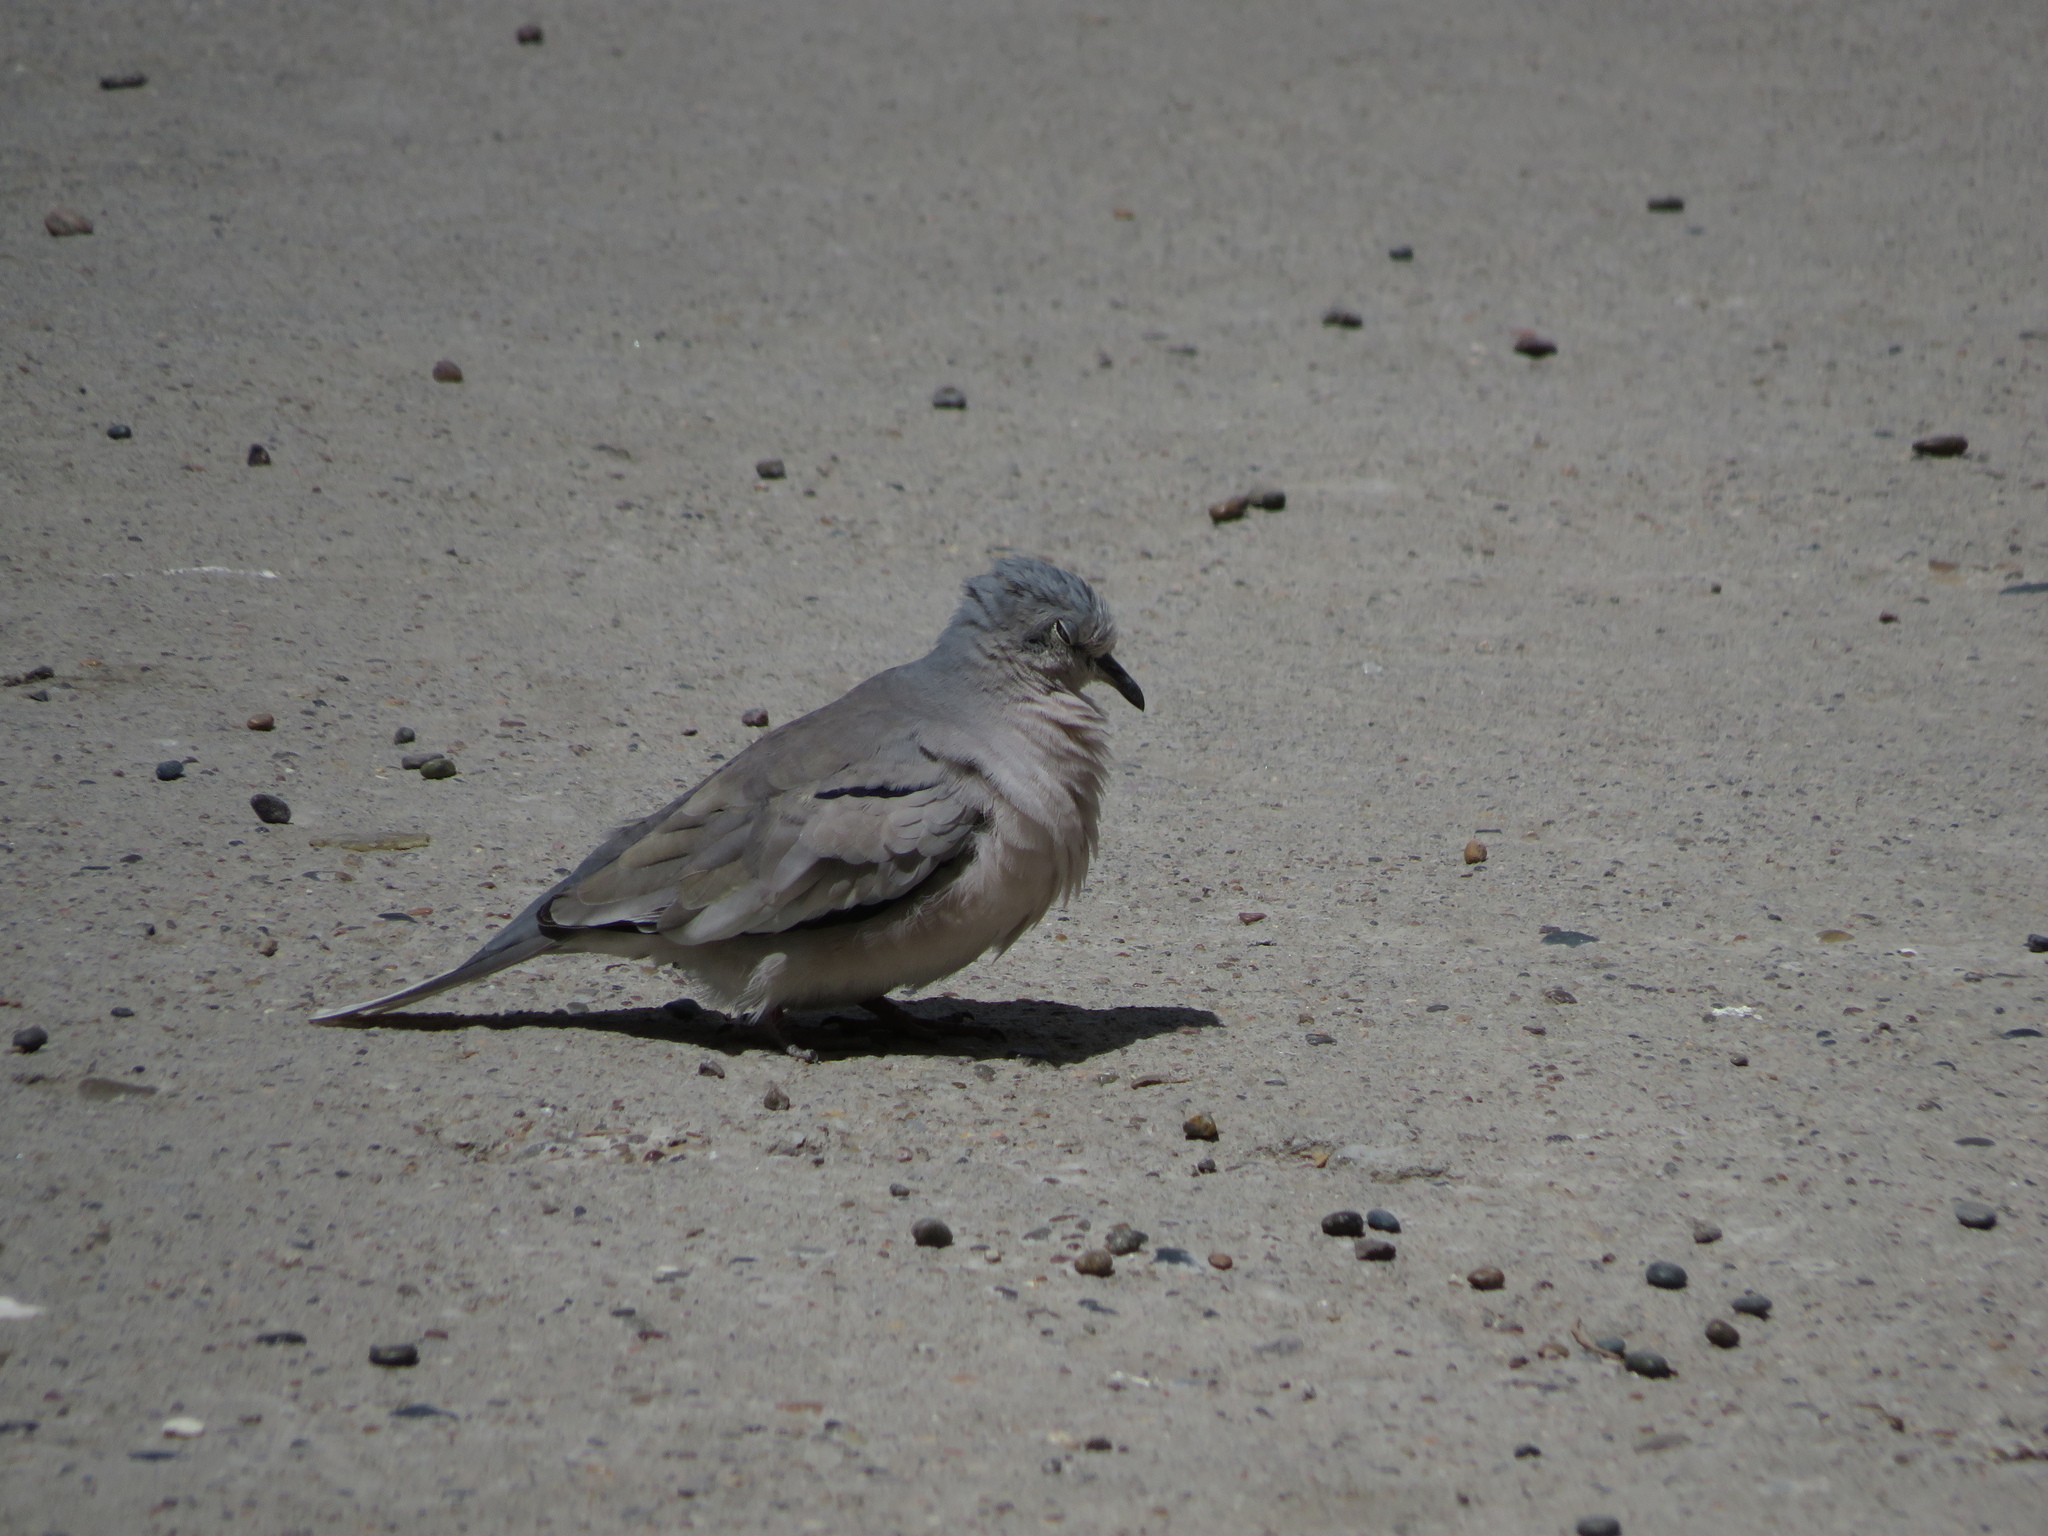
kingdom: Animalia
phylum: Chordata
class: Aves
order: Columbiformes
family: Columbidae
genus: Columbina
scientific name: Columbina picui
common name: Picui ground dove
